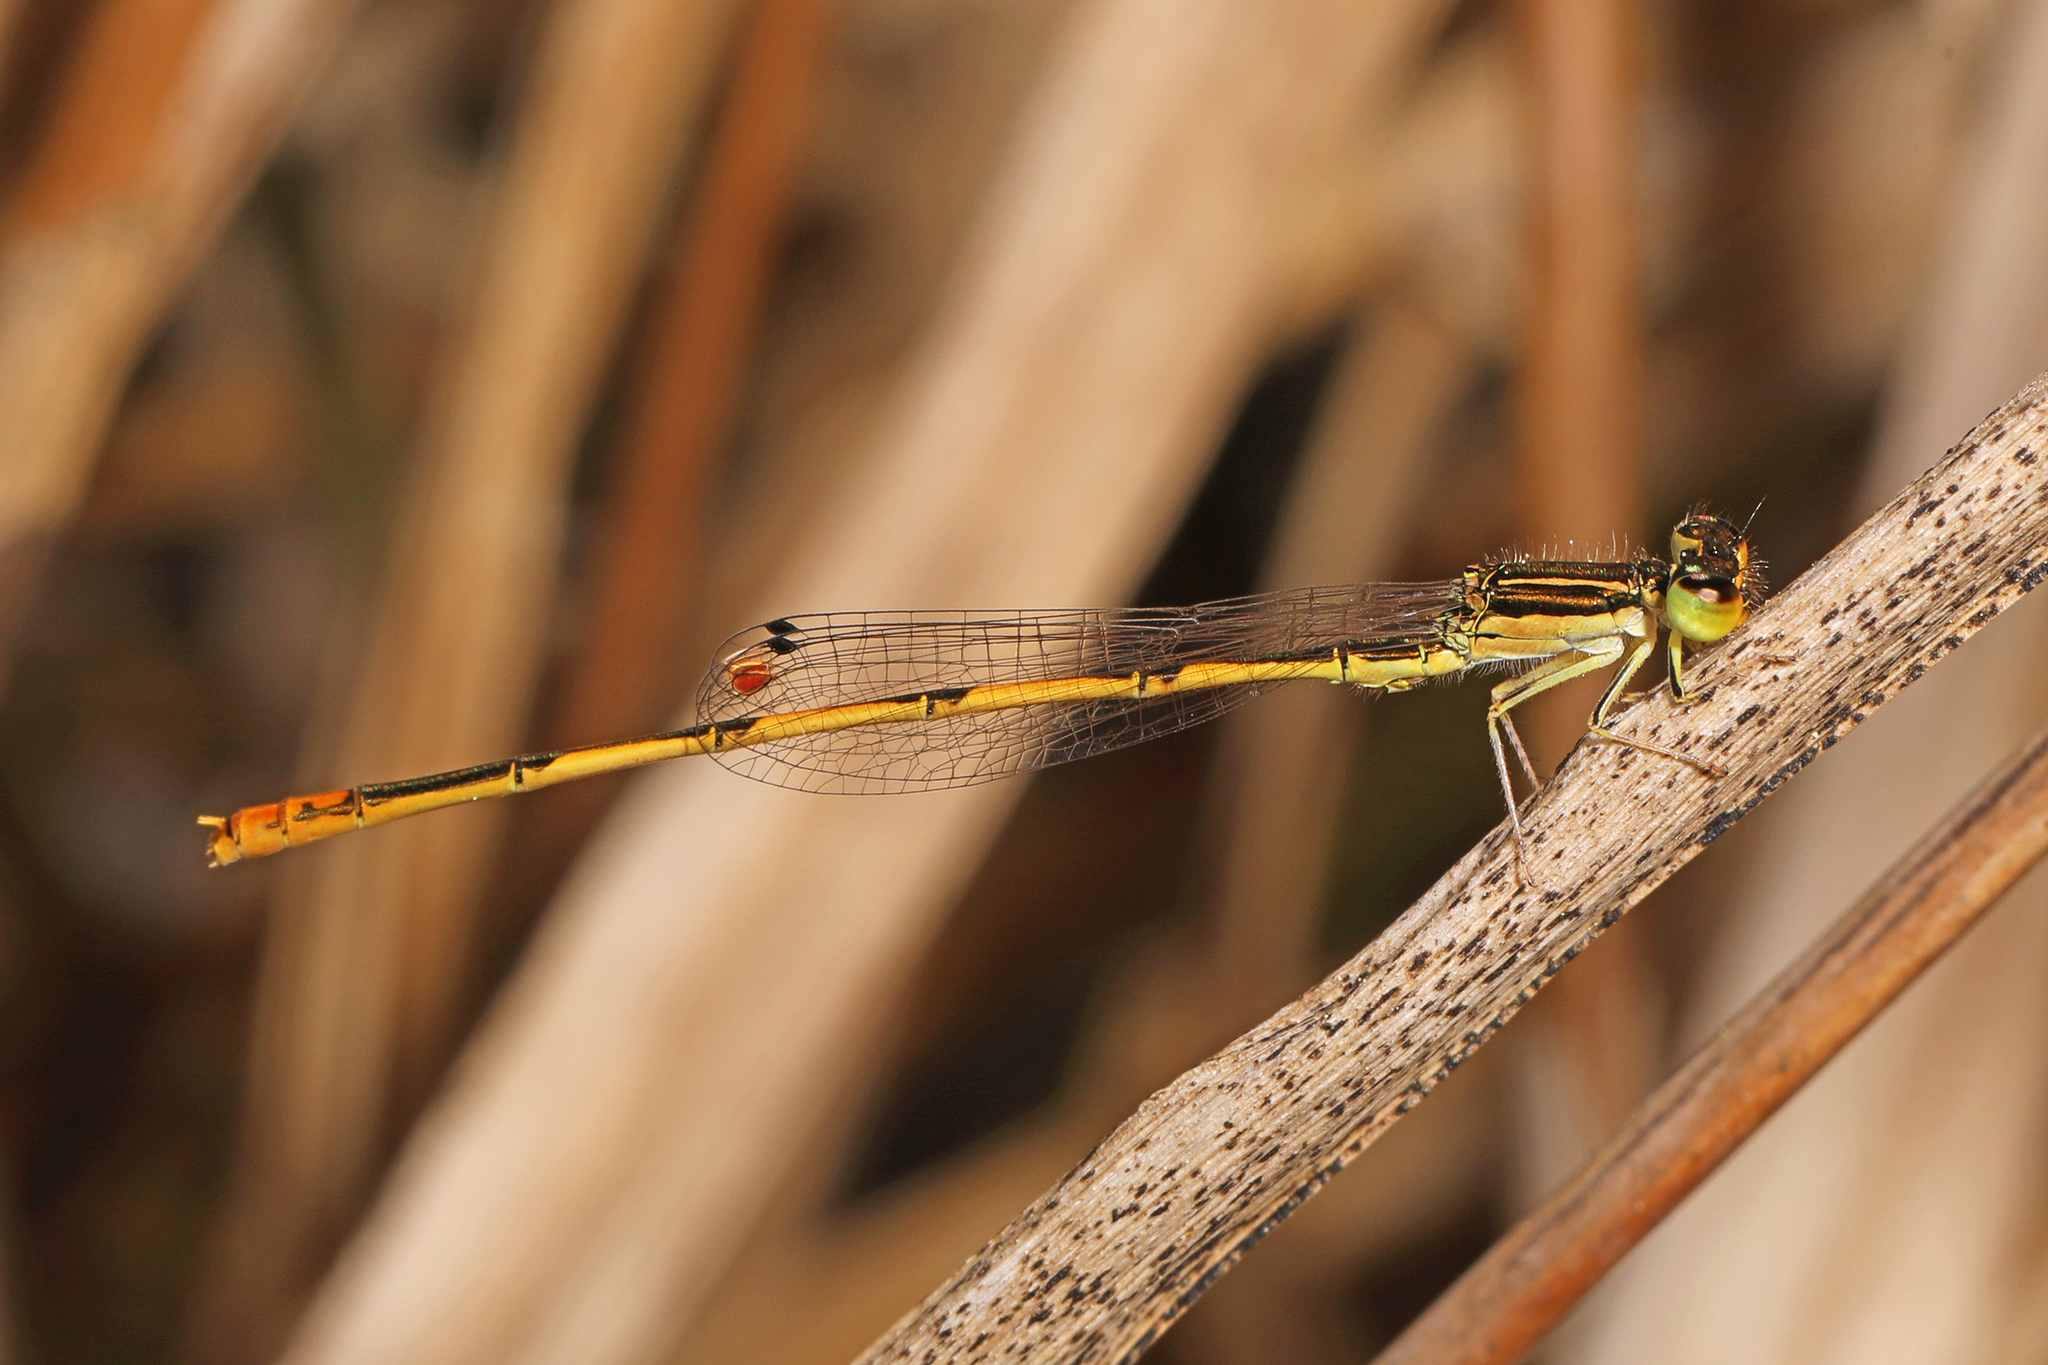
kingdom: Animalia
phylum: Arthropoda
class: Insecta
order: Odonata
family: Coenagrionidae
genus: Ischnura
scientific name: Ischnura hastata
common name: Citrine forktail
